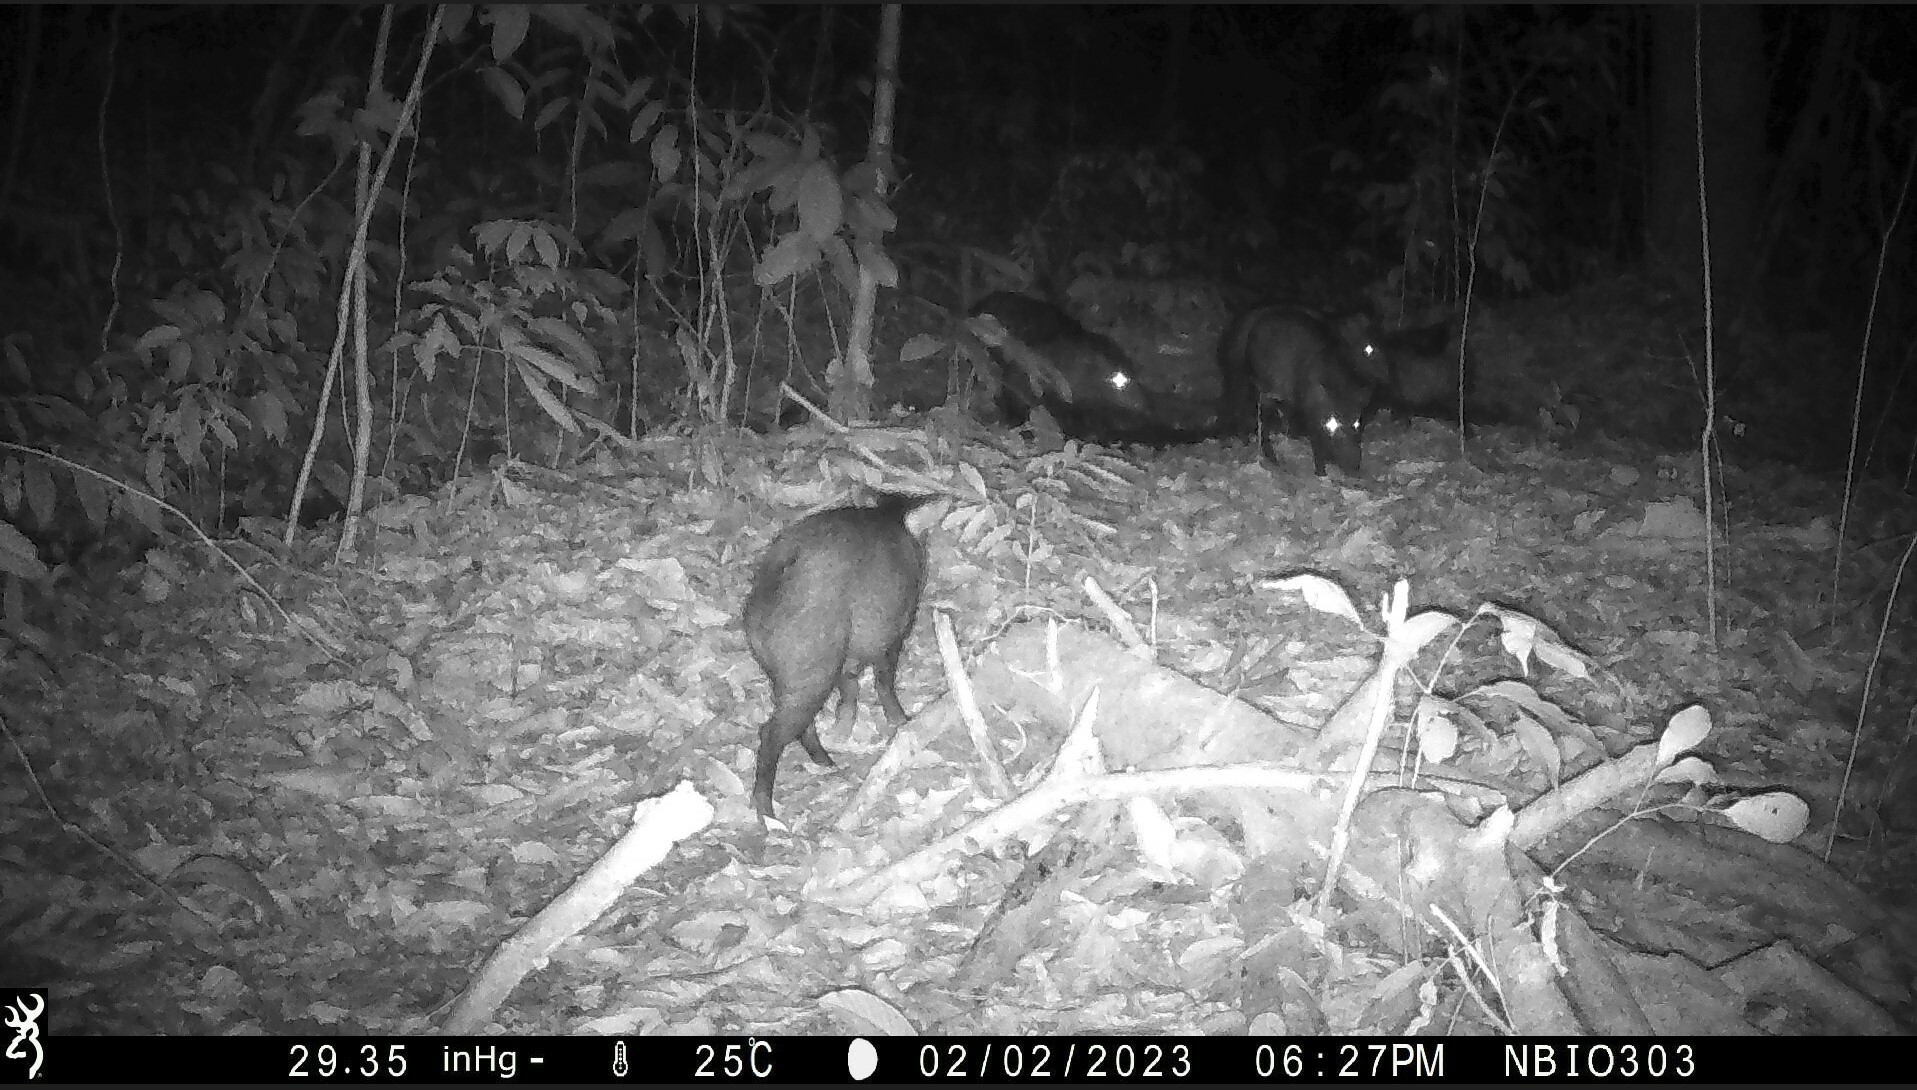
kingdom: Animalia
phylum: Chordata
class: Mammalia
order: Artiodactyla
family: Tayassuidae
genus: Pecari
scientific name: Pecari tajacu
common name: Collared peccary
